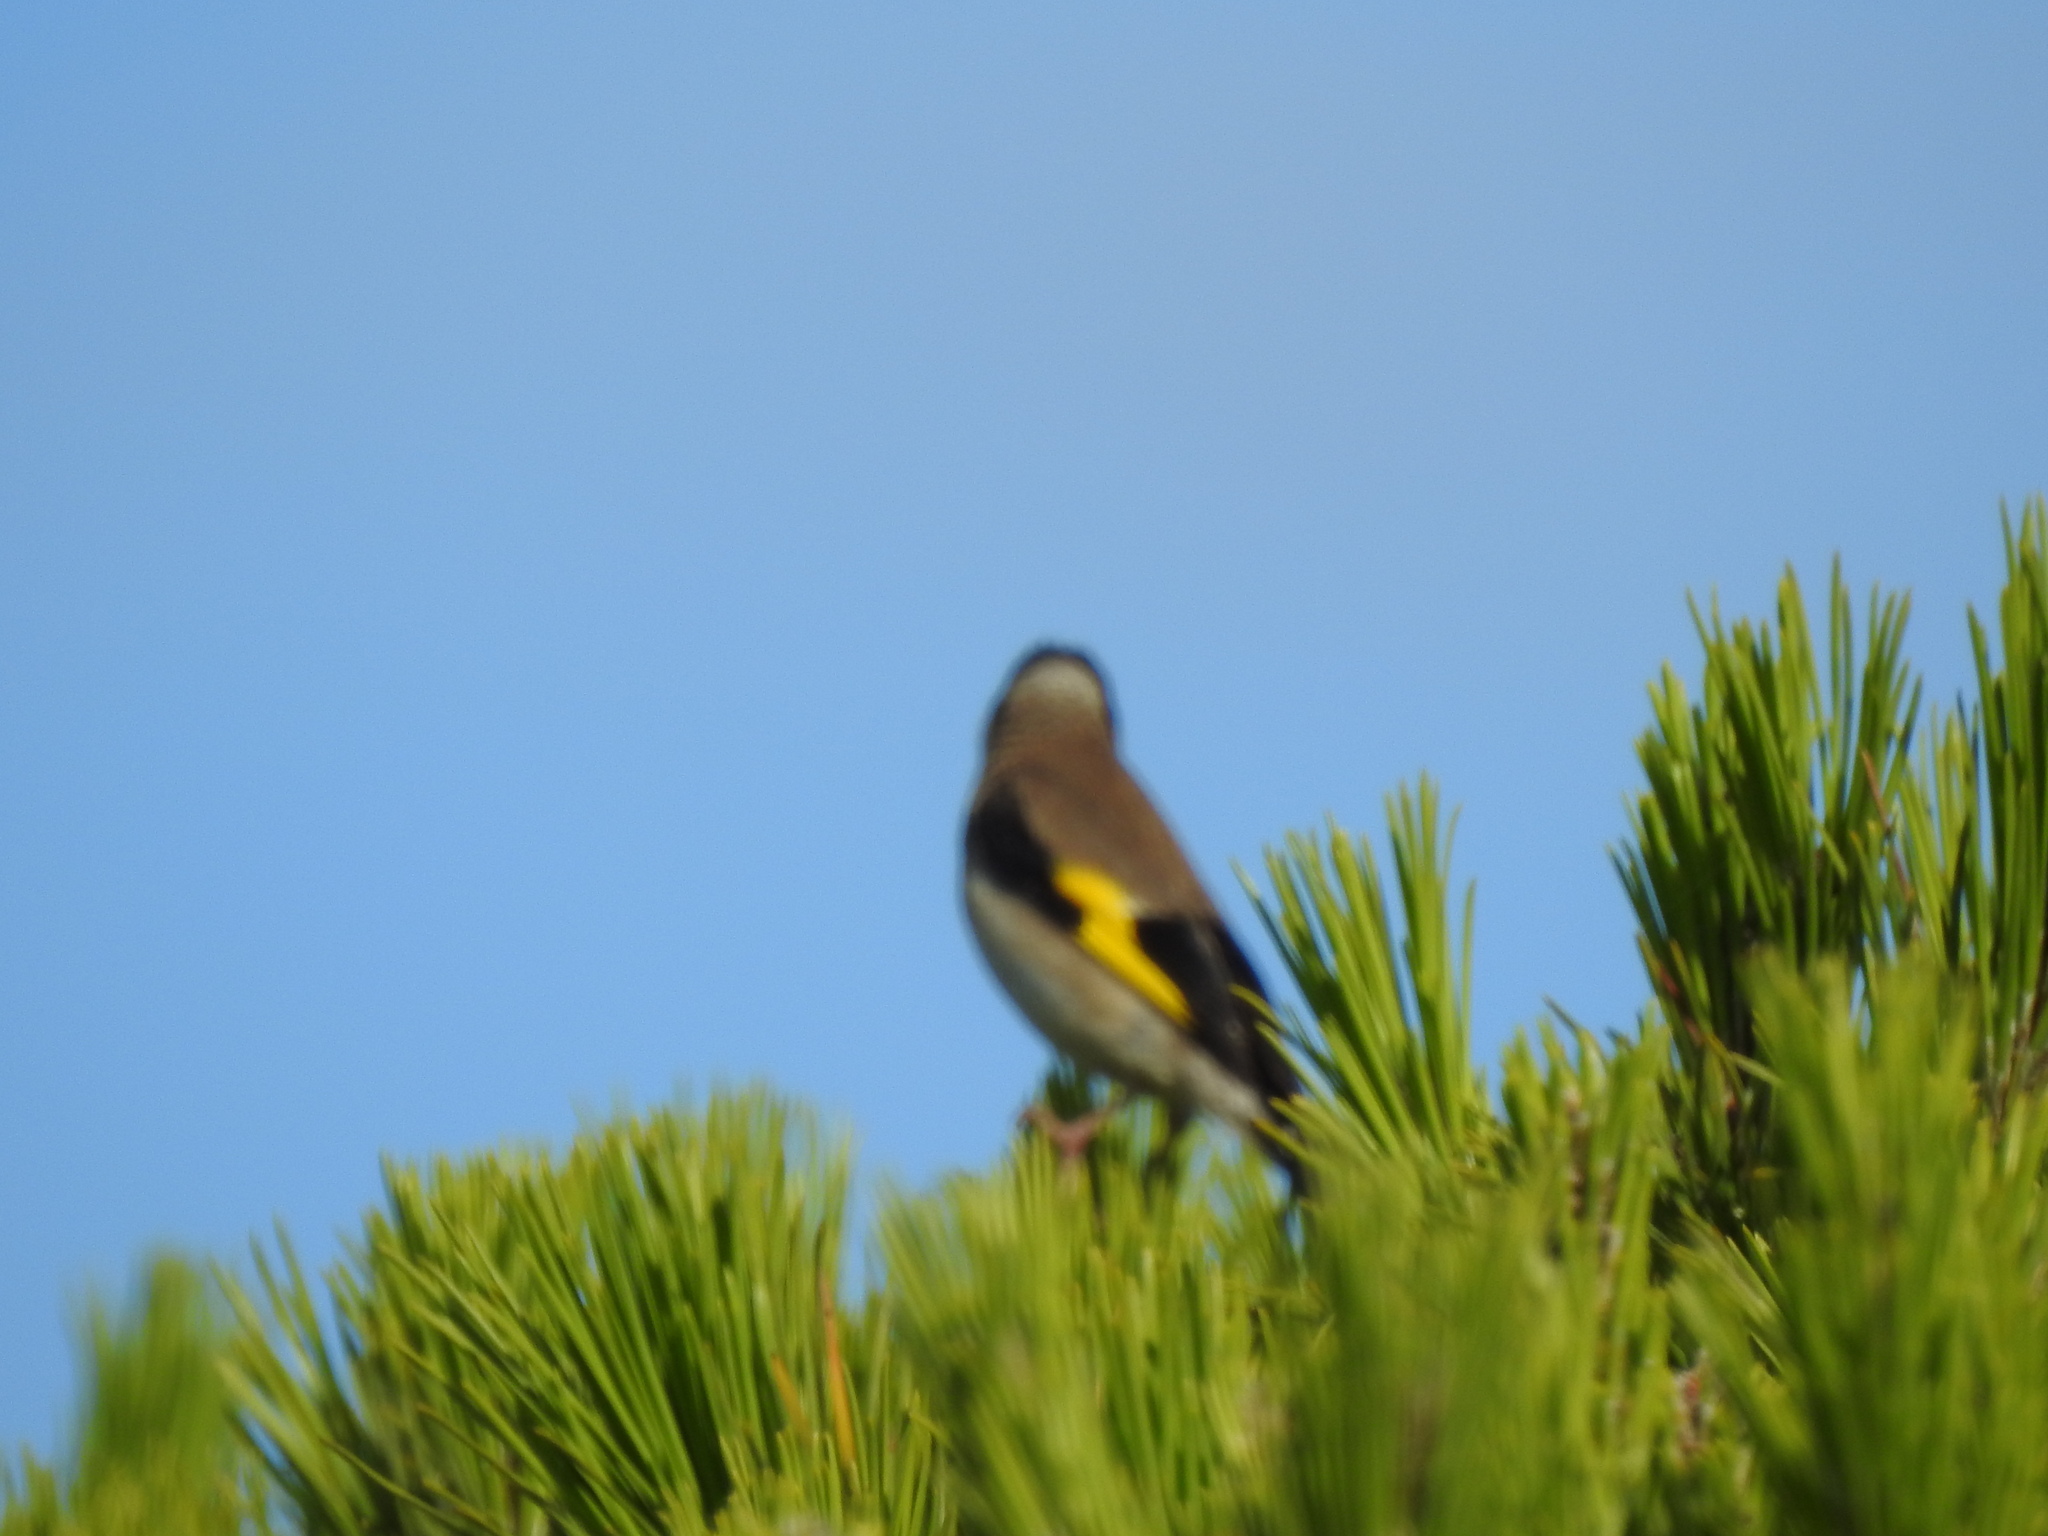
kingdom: Animalia
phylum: Chordata
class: Aves
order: Passeriformes
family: Fringillidae
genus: Carduelis
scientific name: Carduelis carduelis
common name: European goldfinch
